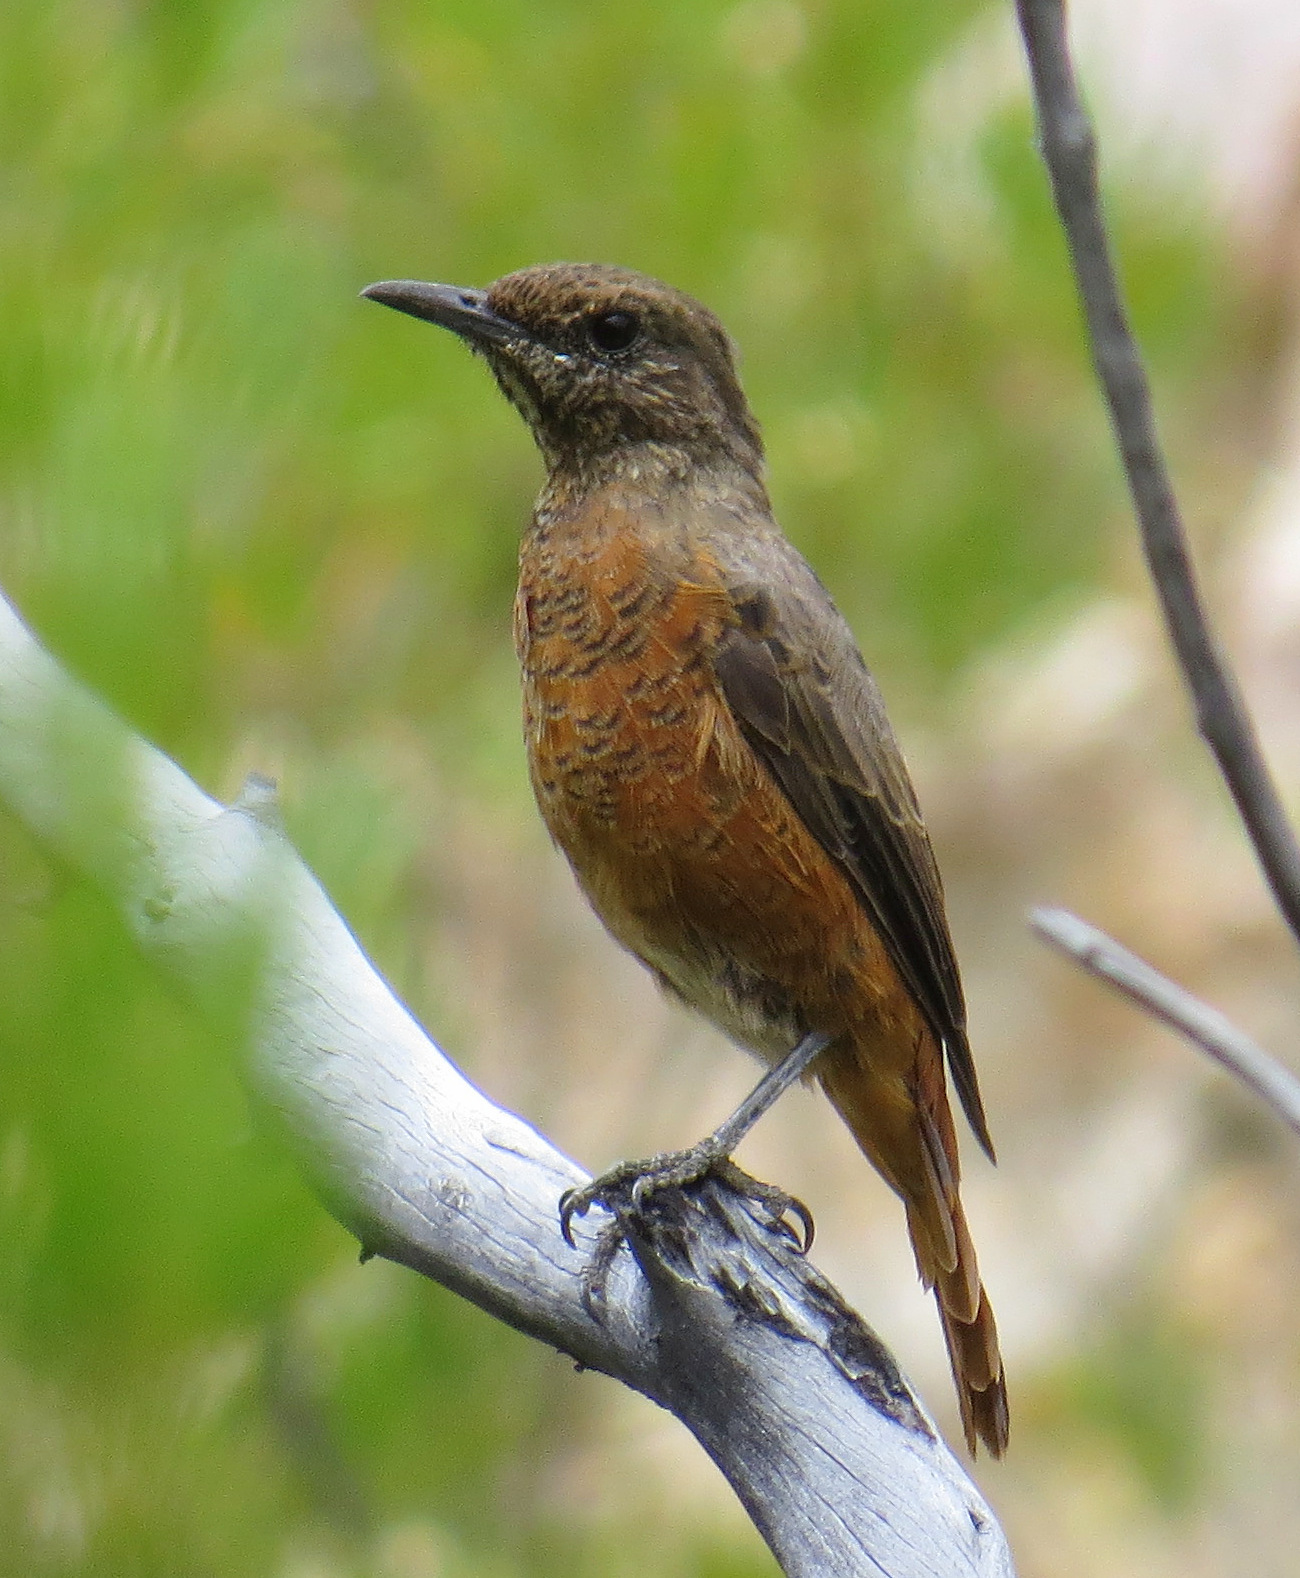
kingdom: Animalia
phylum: Chordata
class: Aves
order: Passeriformes
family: Muscicapidae
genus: Monticola
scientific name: Monticola rupestris
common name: Cape rock thrush
